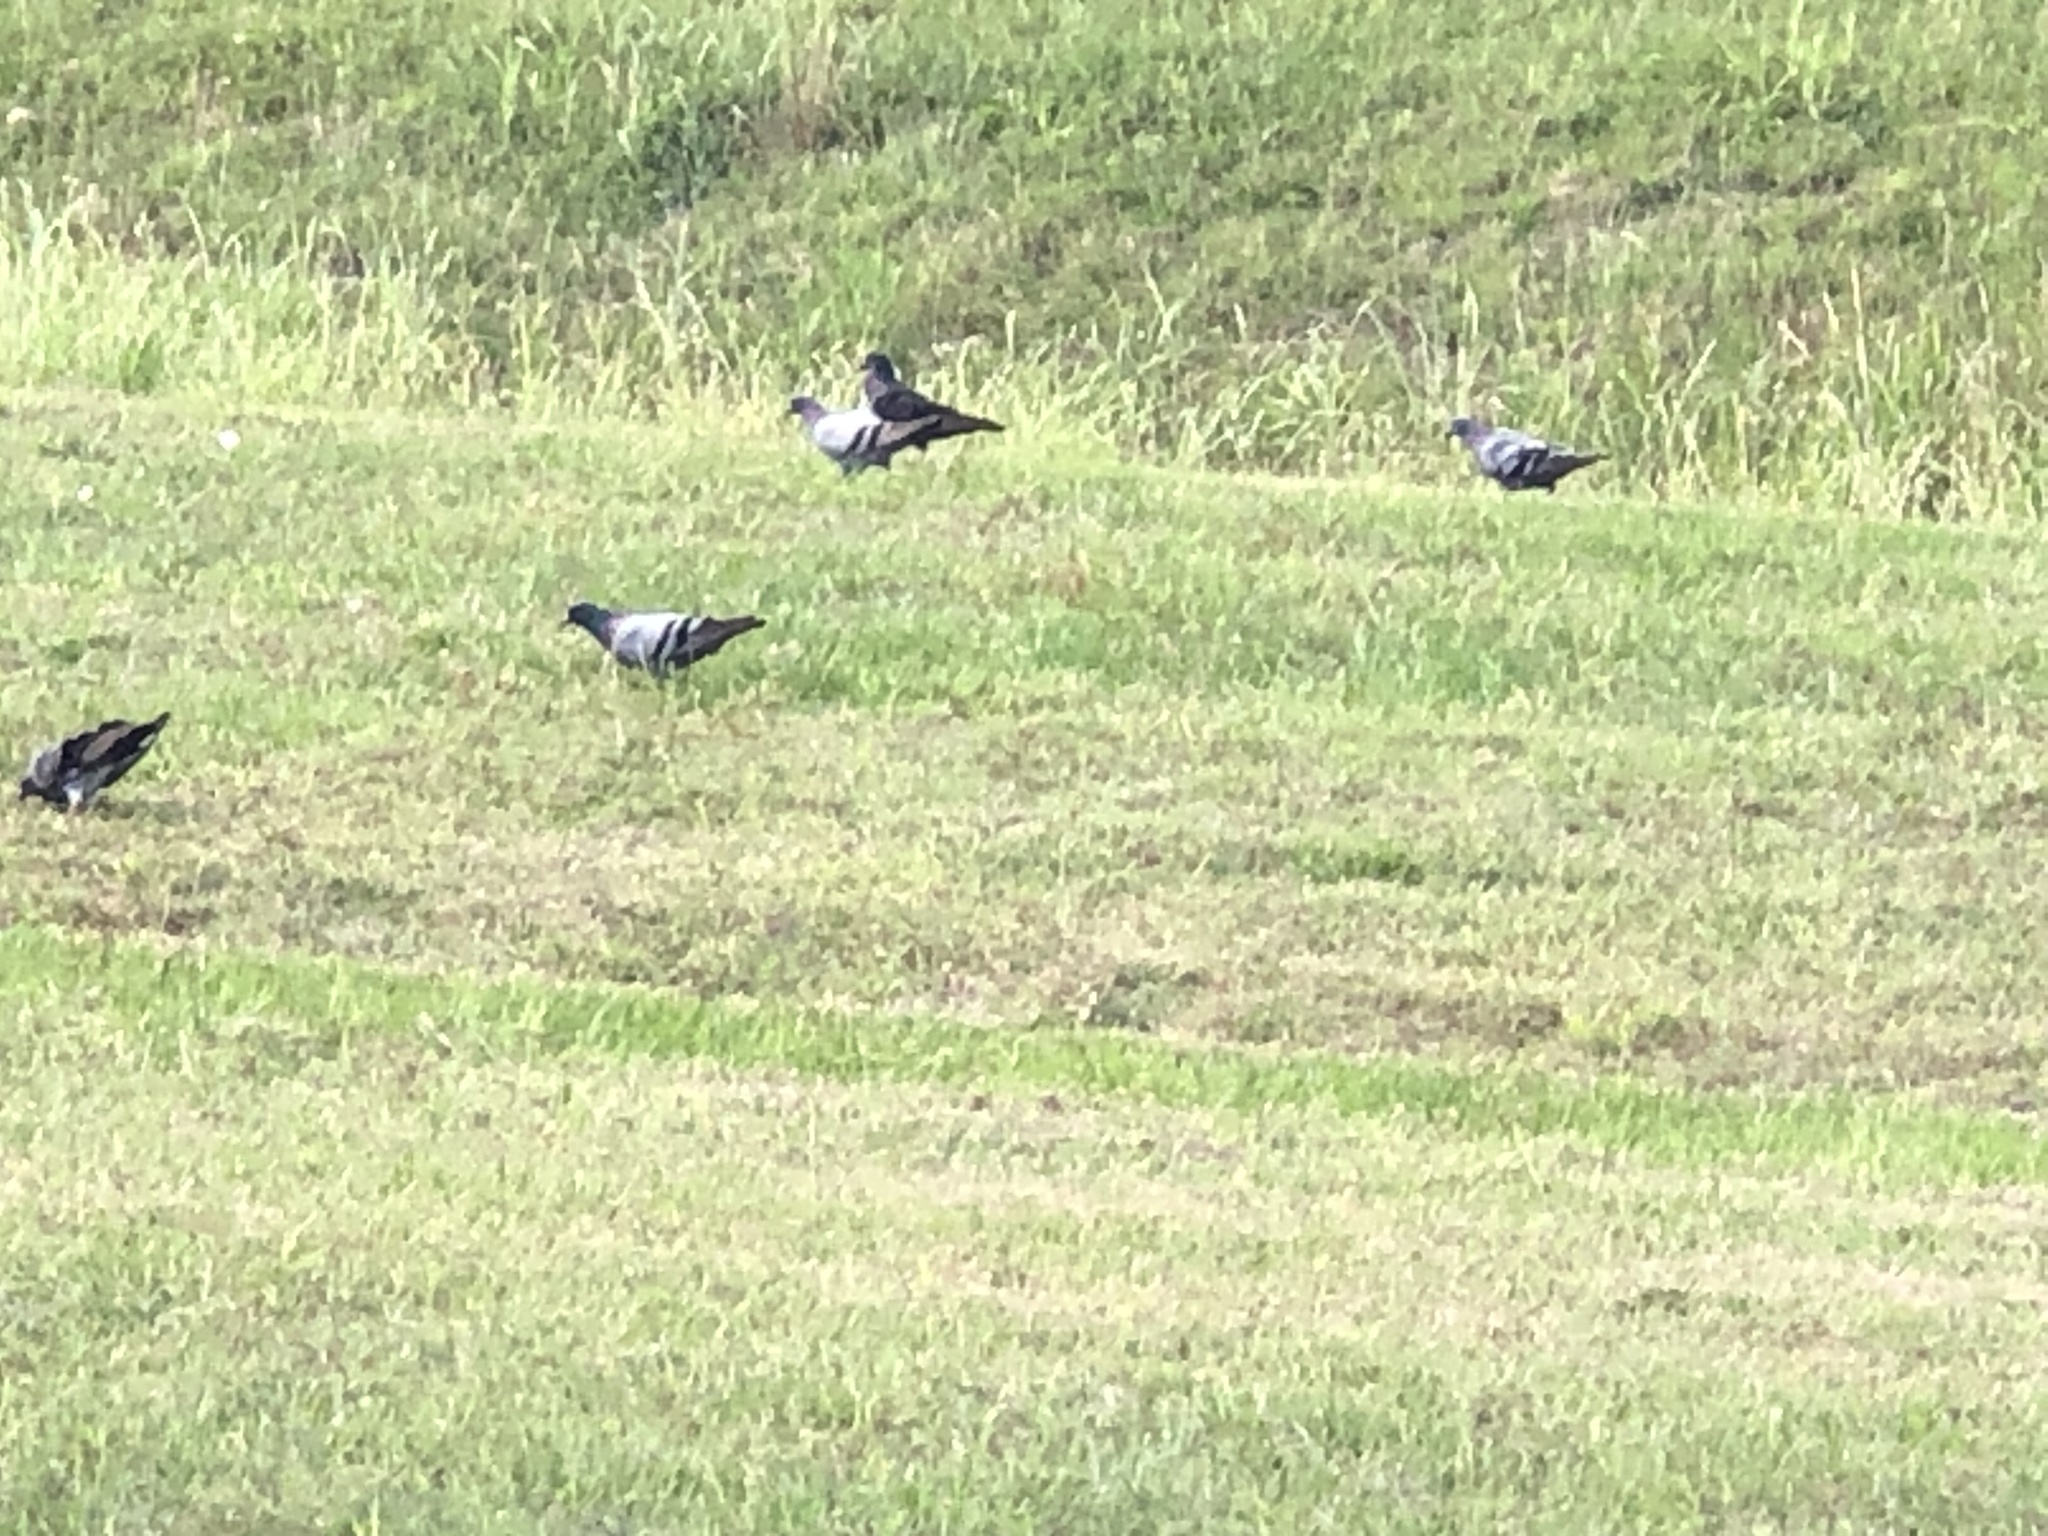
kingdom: Animalia
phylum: Chordata
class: Aves
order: Columbiformes
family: Columbidae
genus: Columba
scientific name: Columba livia
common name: Rock pigeon
